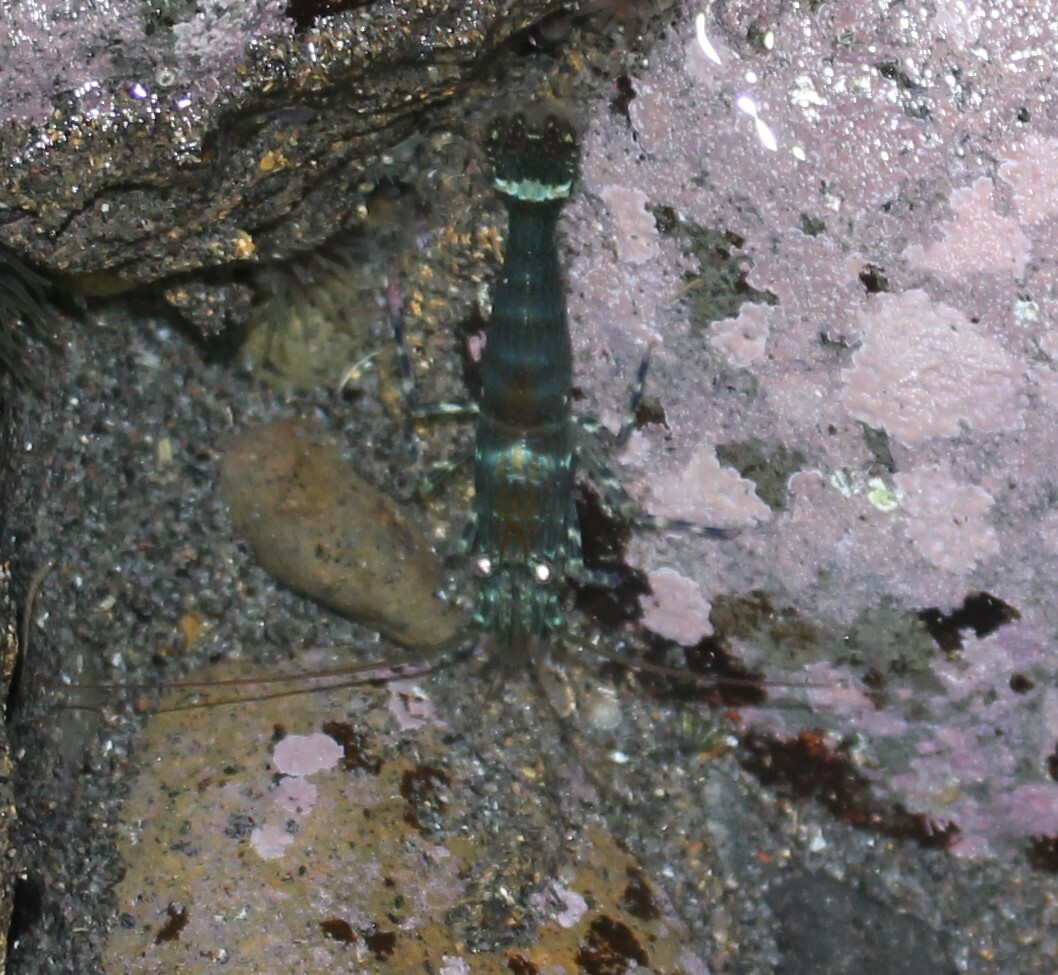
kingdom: Animalia
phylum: Arthropoda
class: Malacostraca
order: Decapoda
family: Hippolytidae
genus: Alope
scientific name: Alope spinifrons
